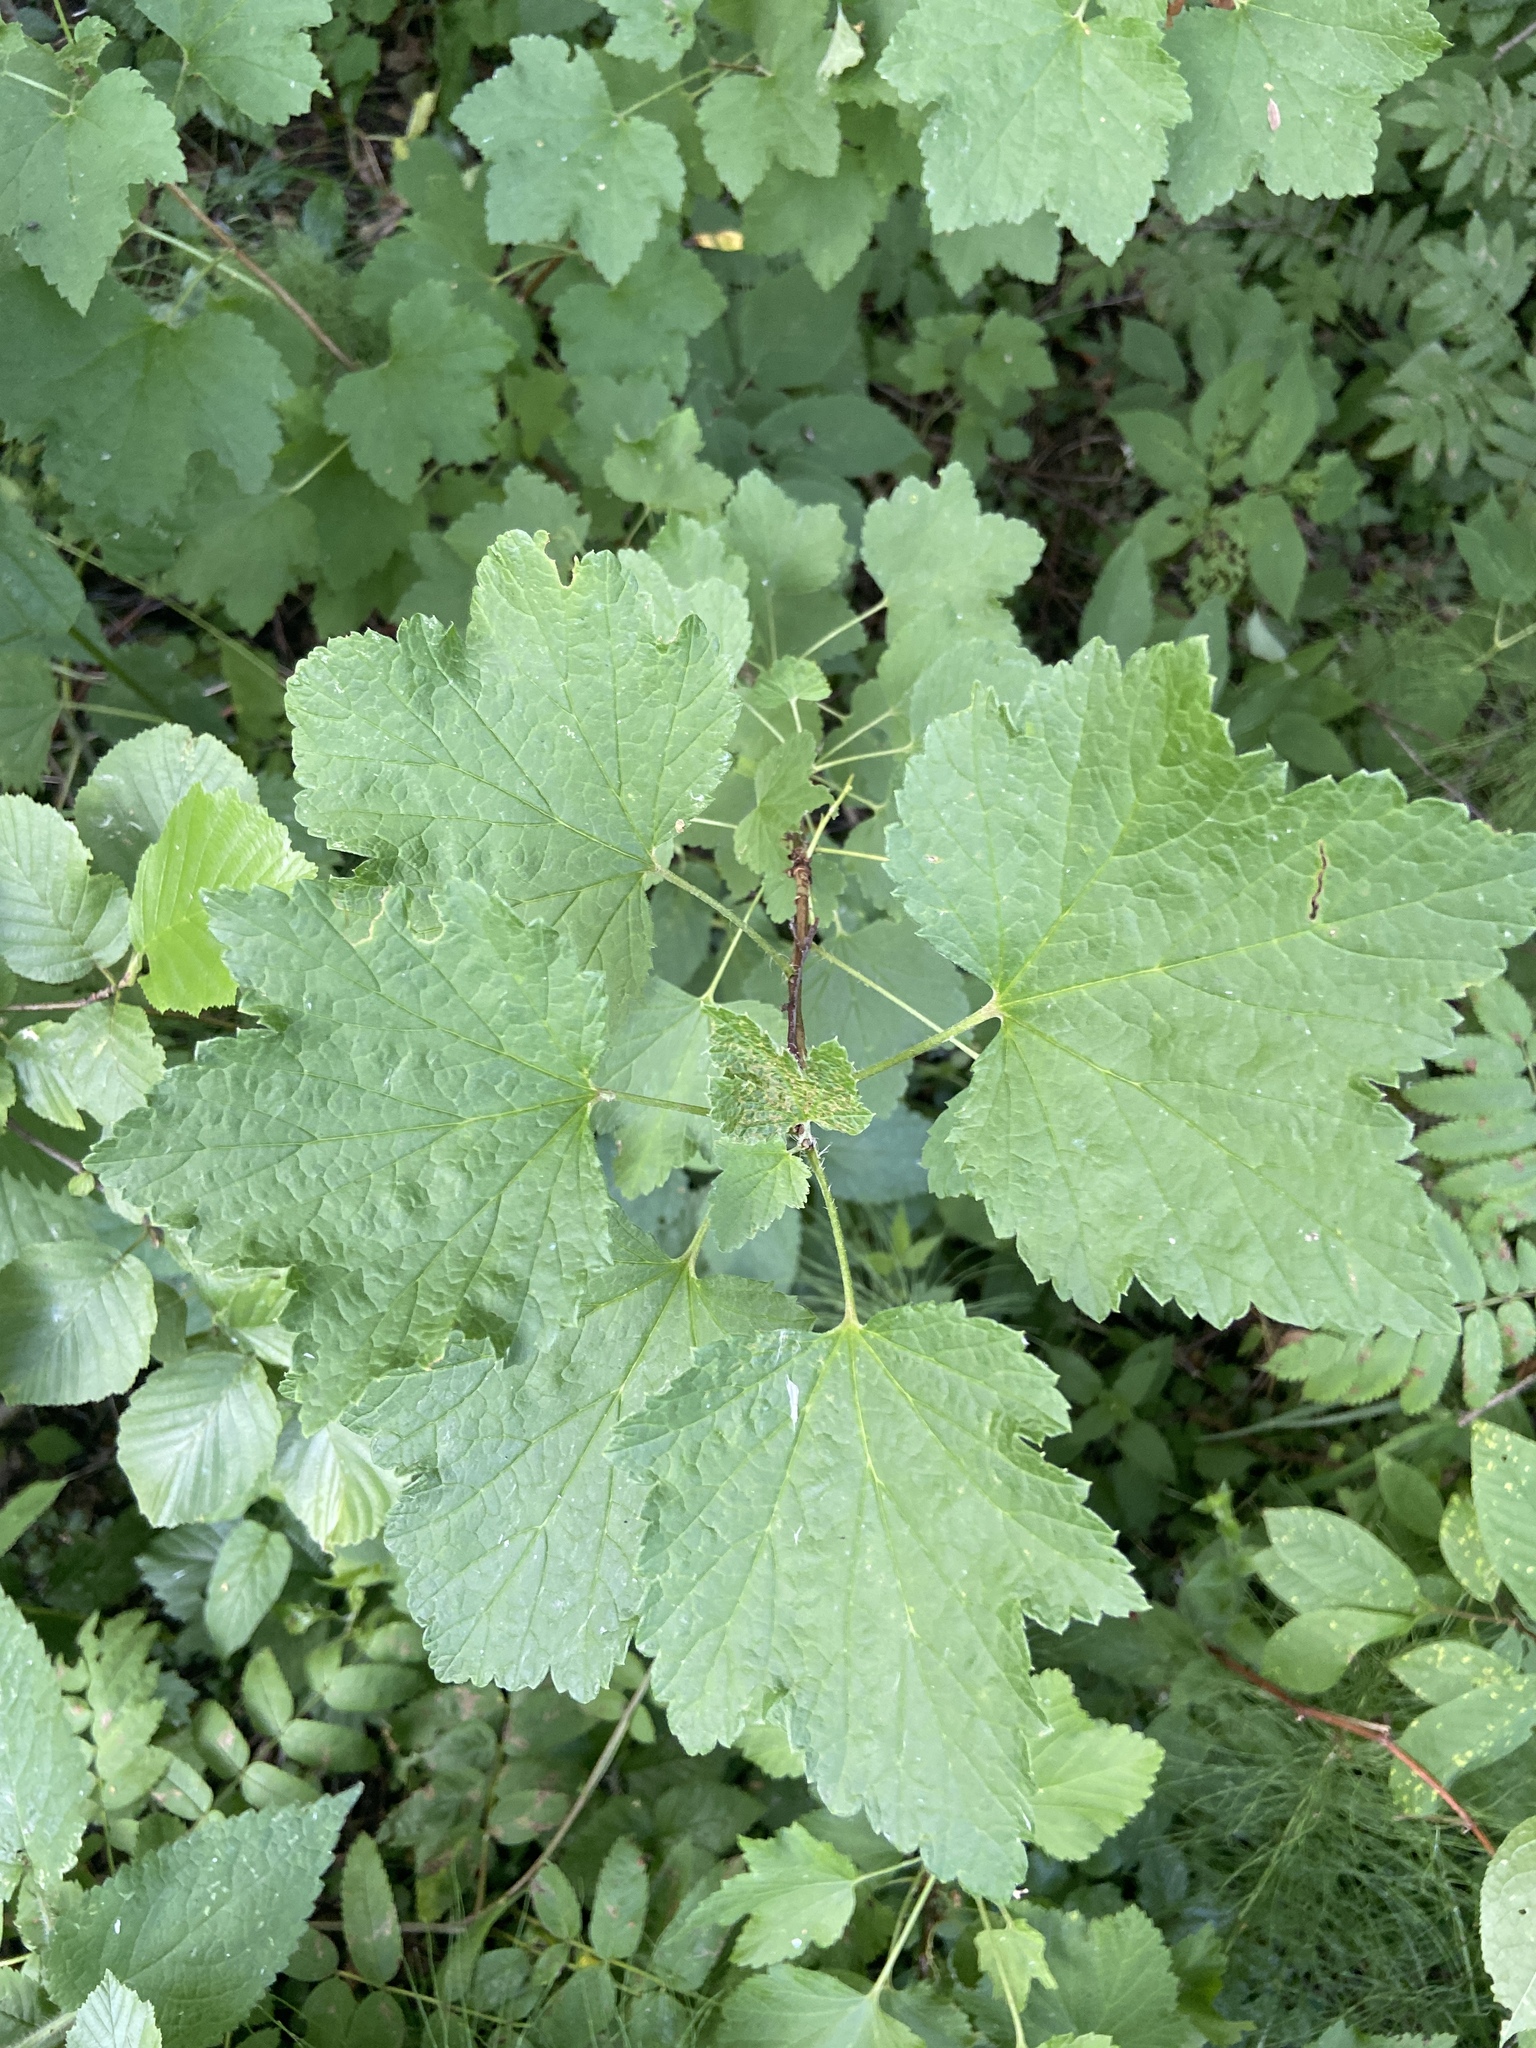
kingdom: Plantae
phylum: Tracheophyta
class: Magnoliopsida
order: Saxifragales
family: Grossulariaceae
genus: Ribes
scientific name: Ribes rubrum
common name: Red currant
